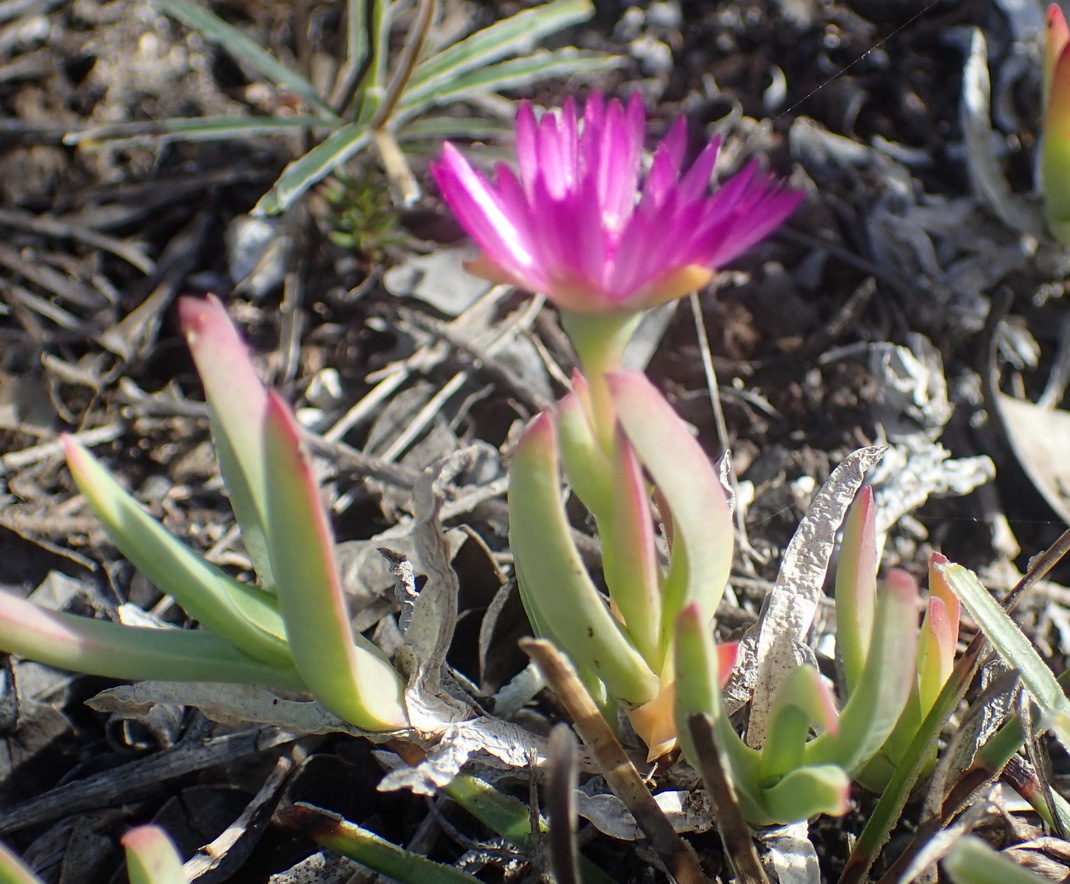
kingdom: Plantae
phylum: Tracheophyta
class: Magnoliopsida
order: Caryophyllales
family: Aizoaceae
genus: Ruschia
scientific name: Ruschia calcicola
